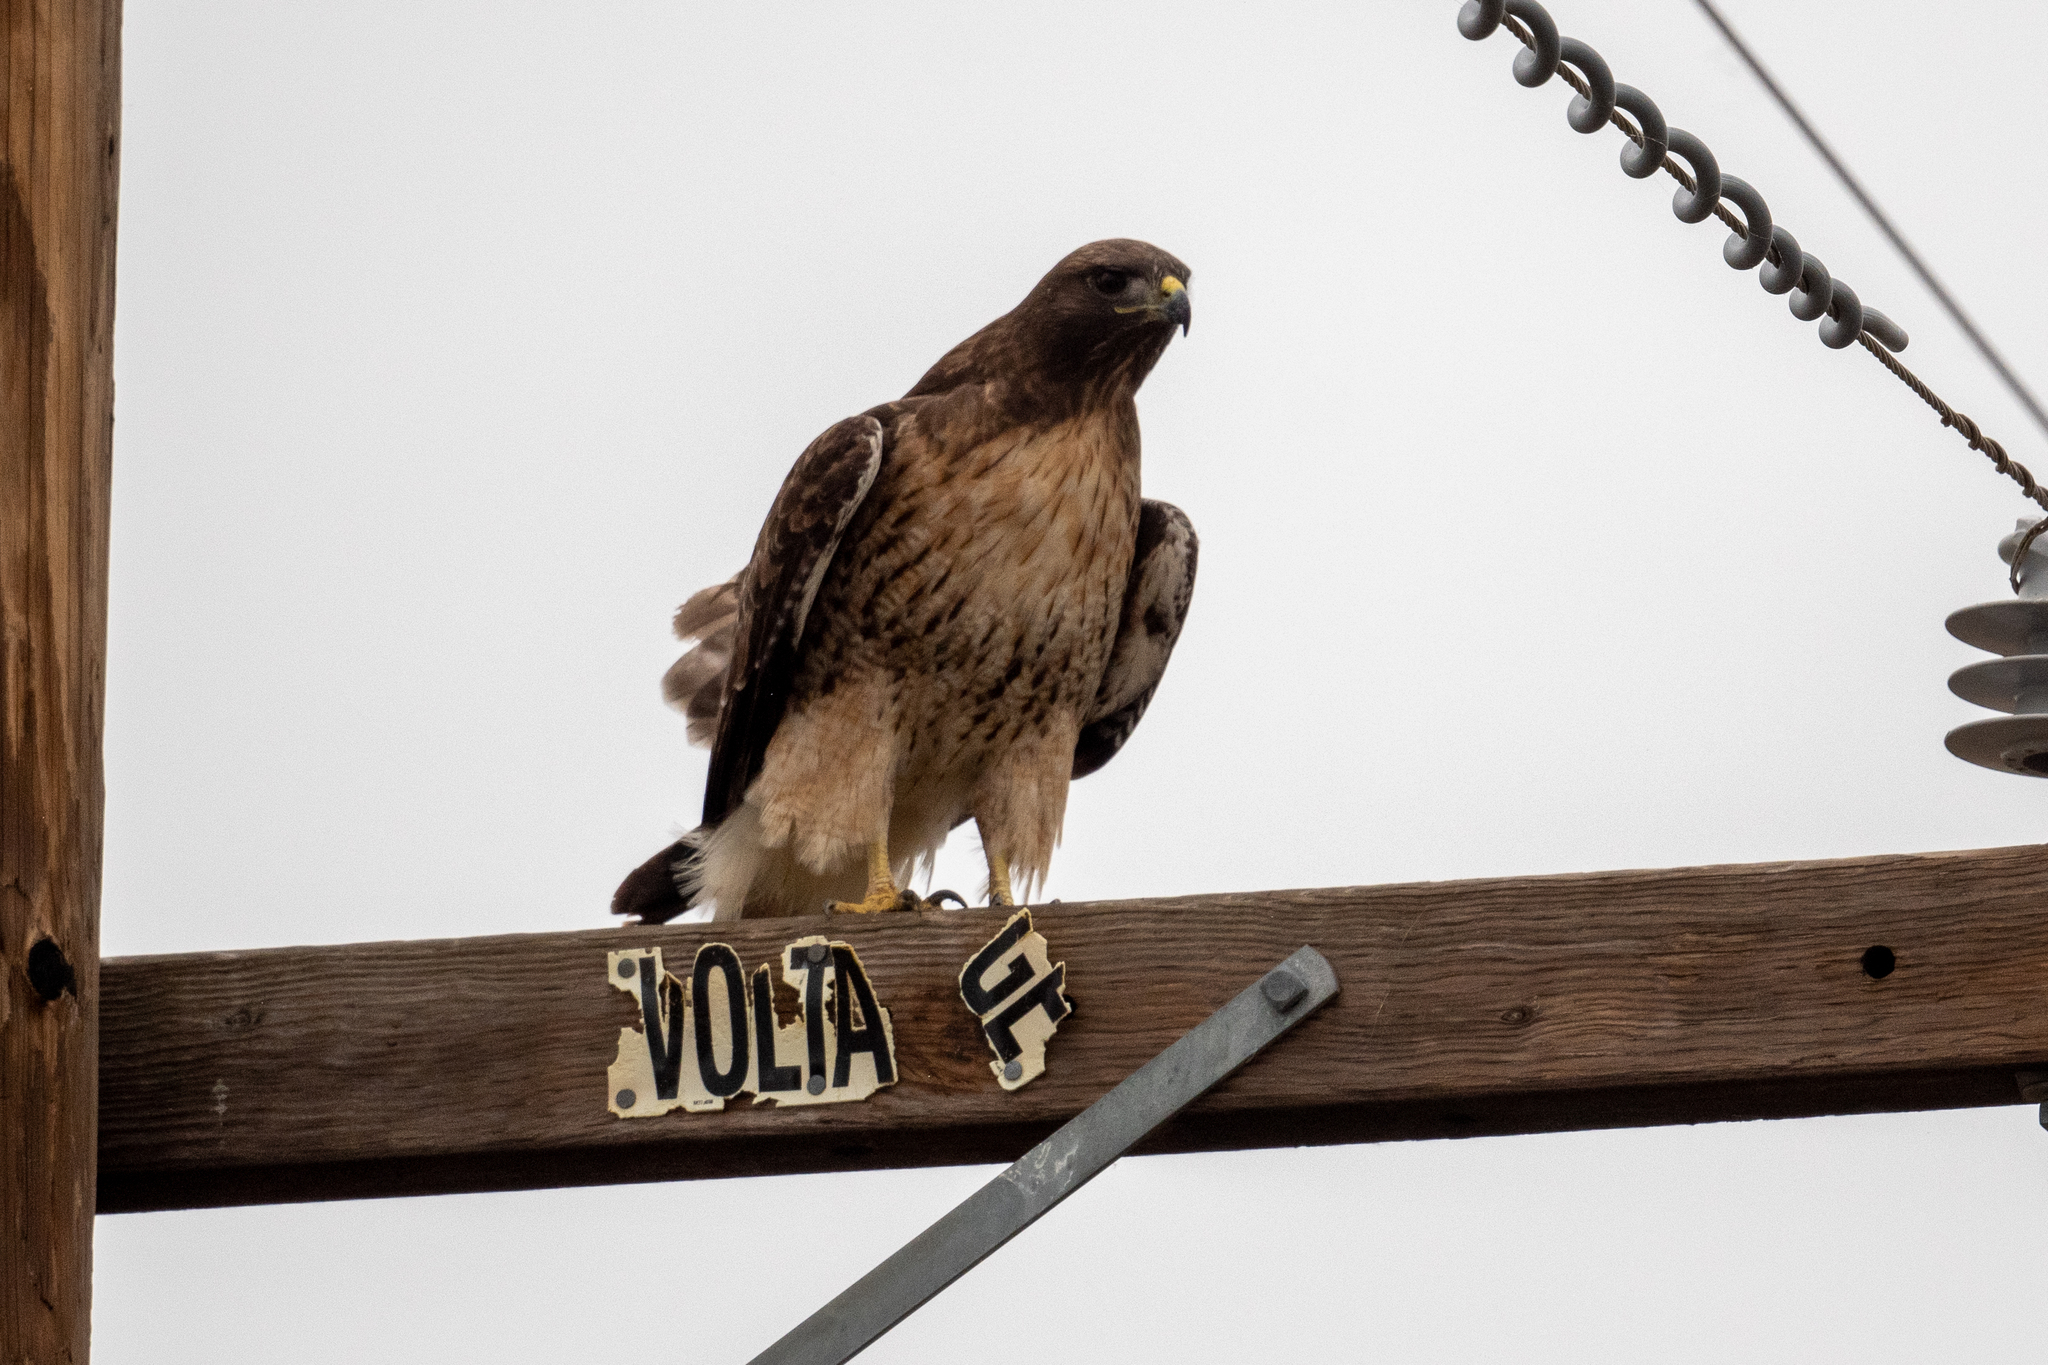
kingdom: Animalia
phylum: Chordata
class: Aves
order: Accipitriformes
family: Accipitridae
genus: Buteo
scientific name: Buteo jamaicensis
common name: Red-tailed hawk
